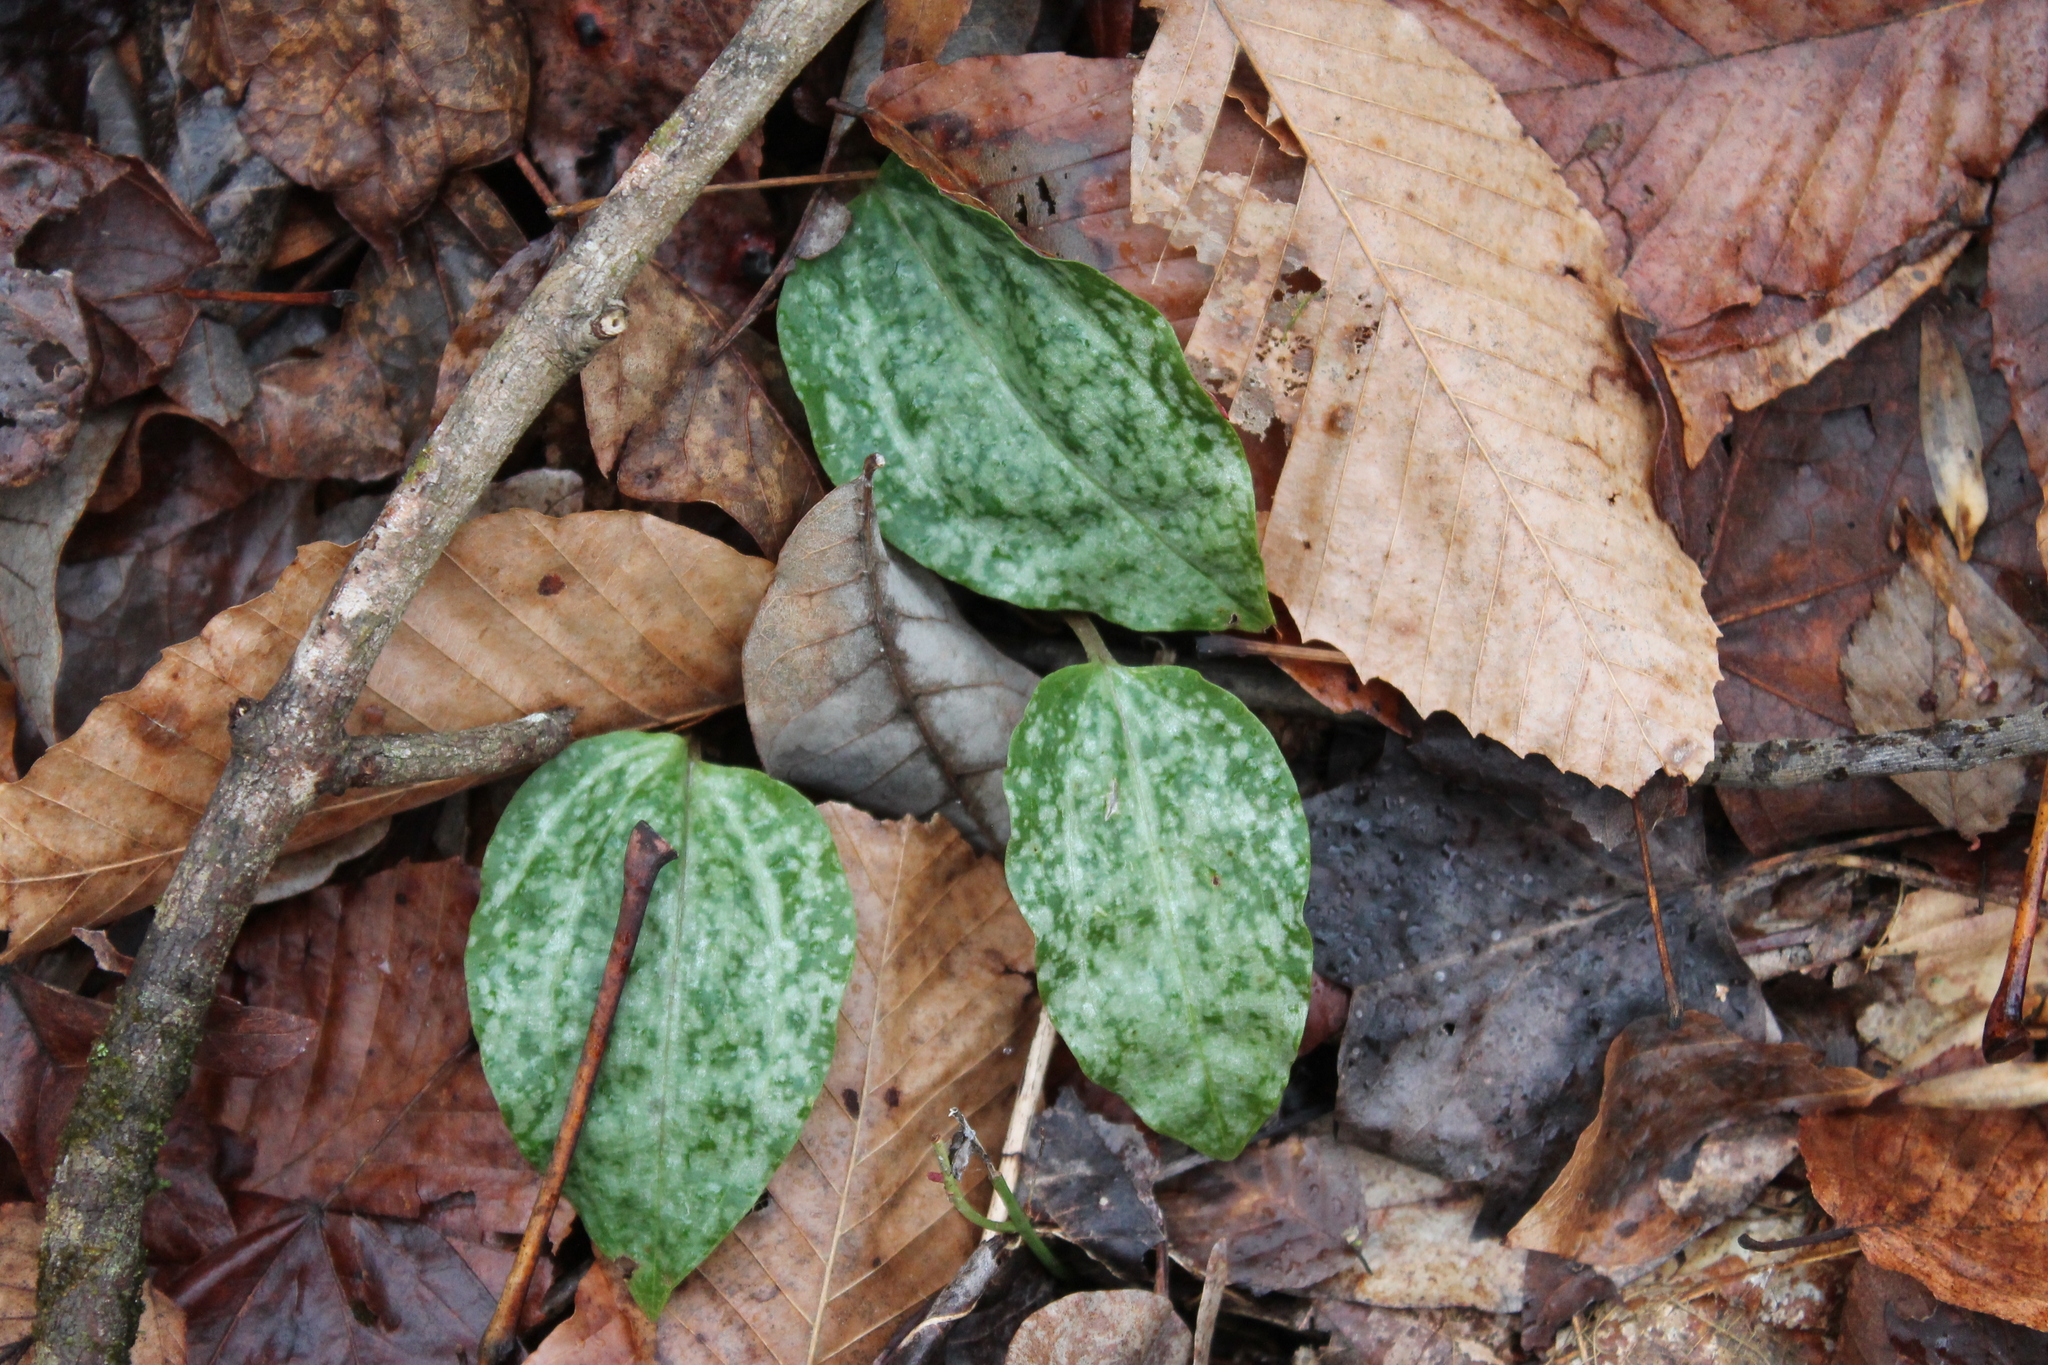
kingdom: Plantae
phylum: Tracheophyta
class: Liliopsida
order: Asparagales
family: Orchidaceae
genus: Tipularia
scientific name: Tipularia discolor
